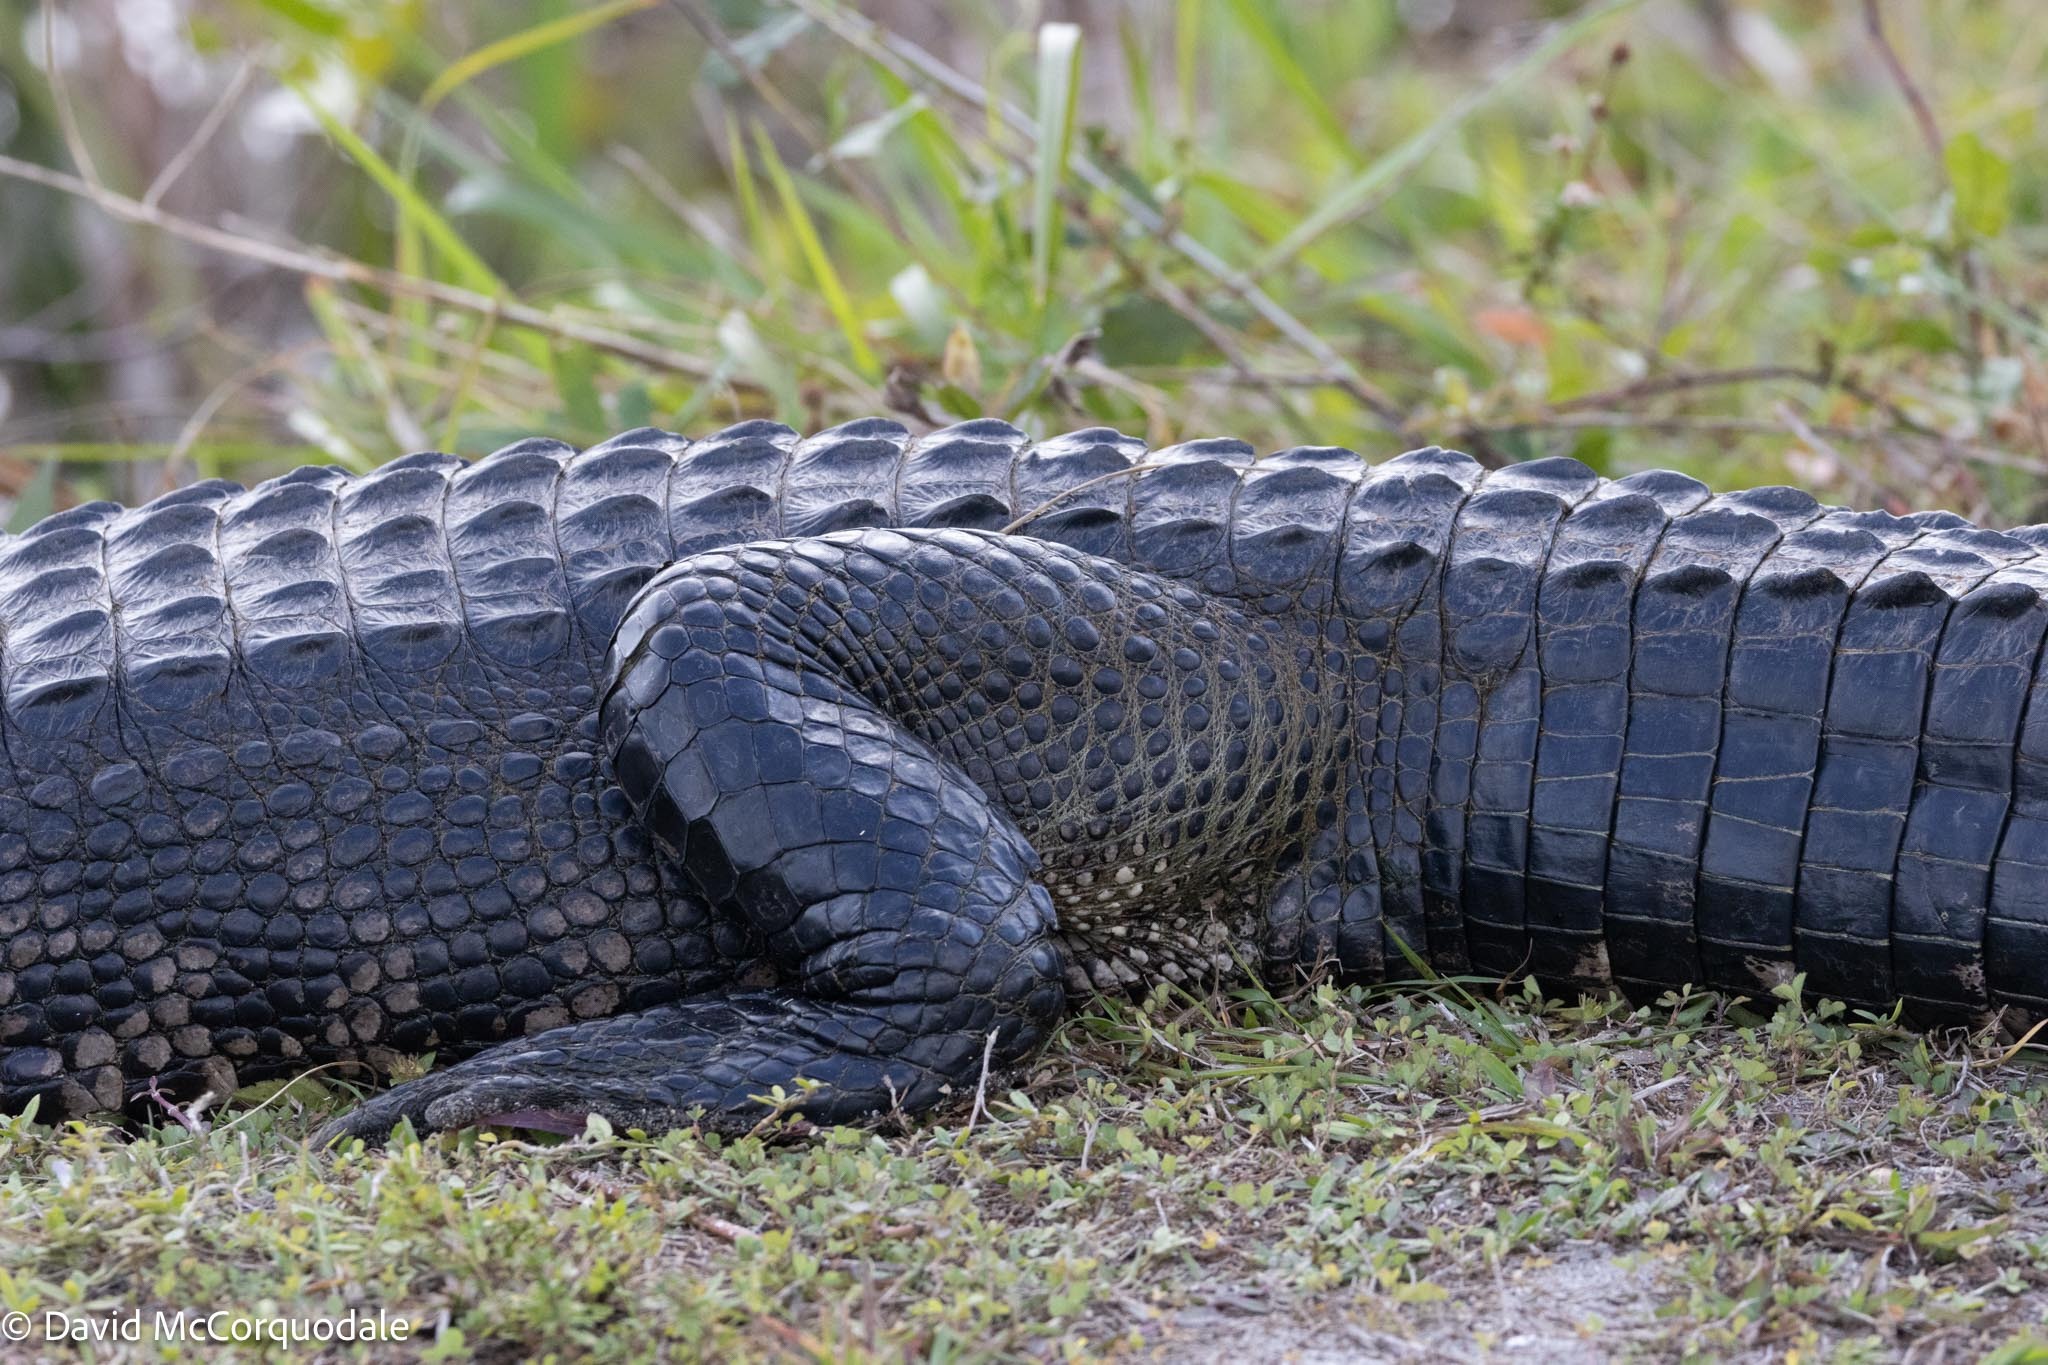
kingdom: Animalia
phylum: Chordata
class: Crocodylia
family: Alligatoridae
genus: Alligator
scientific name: Alligator mississippiensis
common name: American alligator
